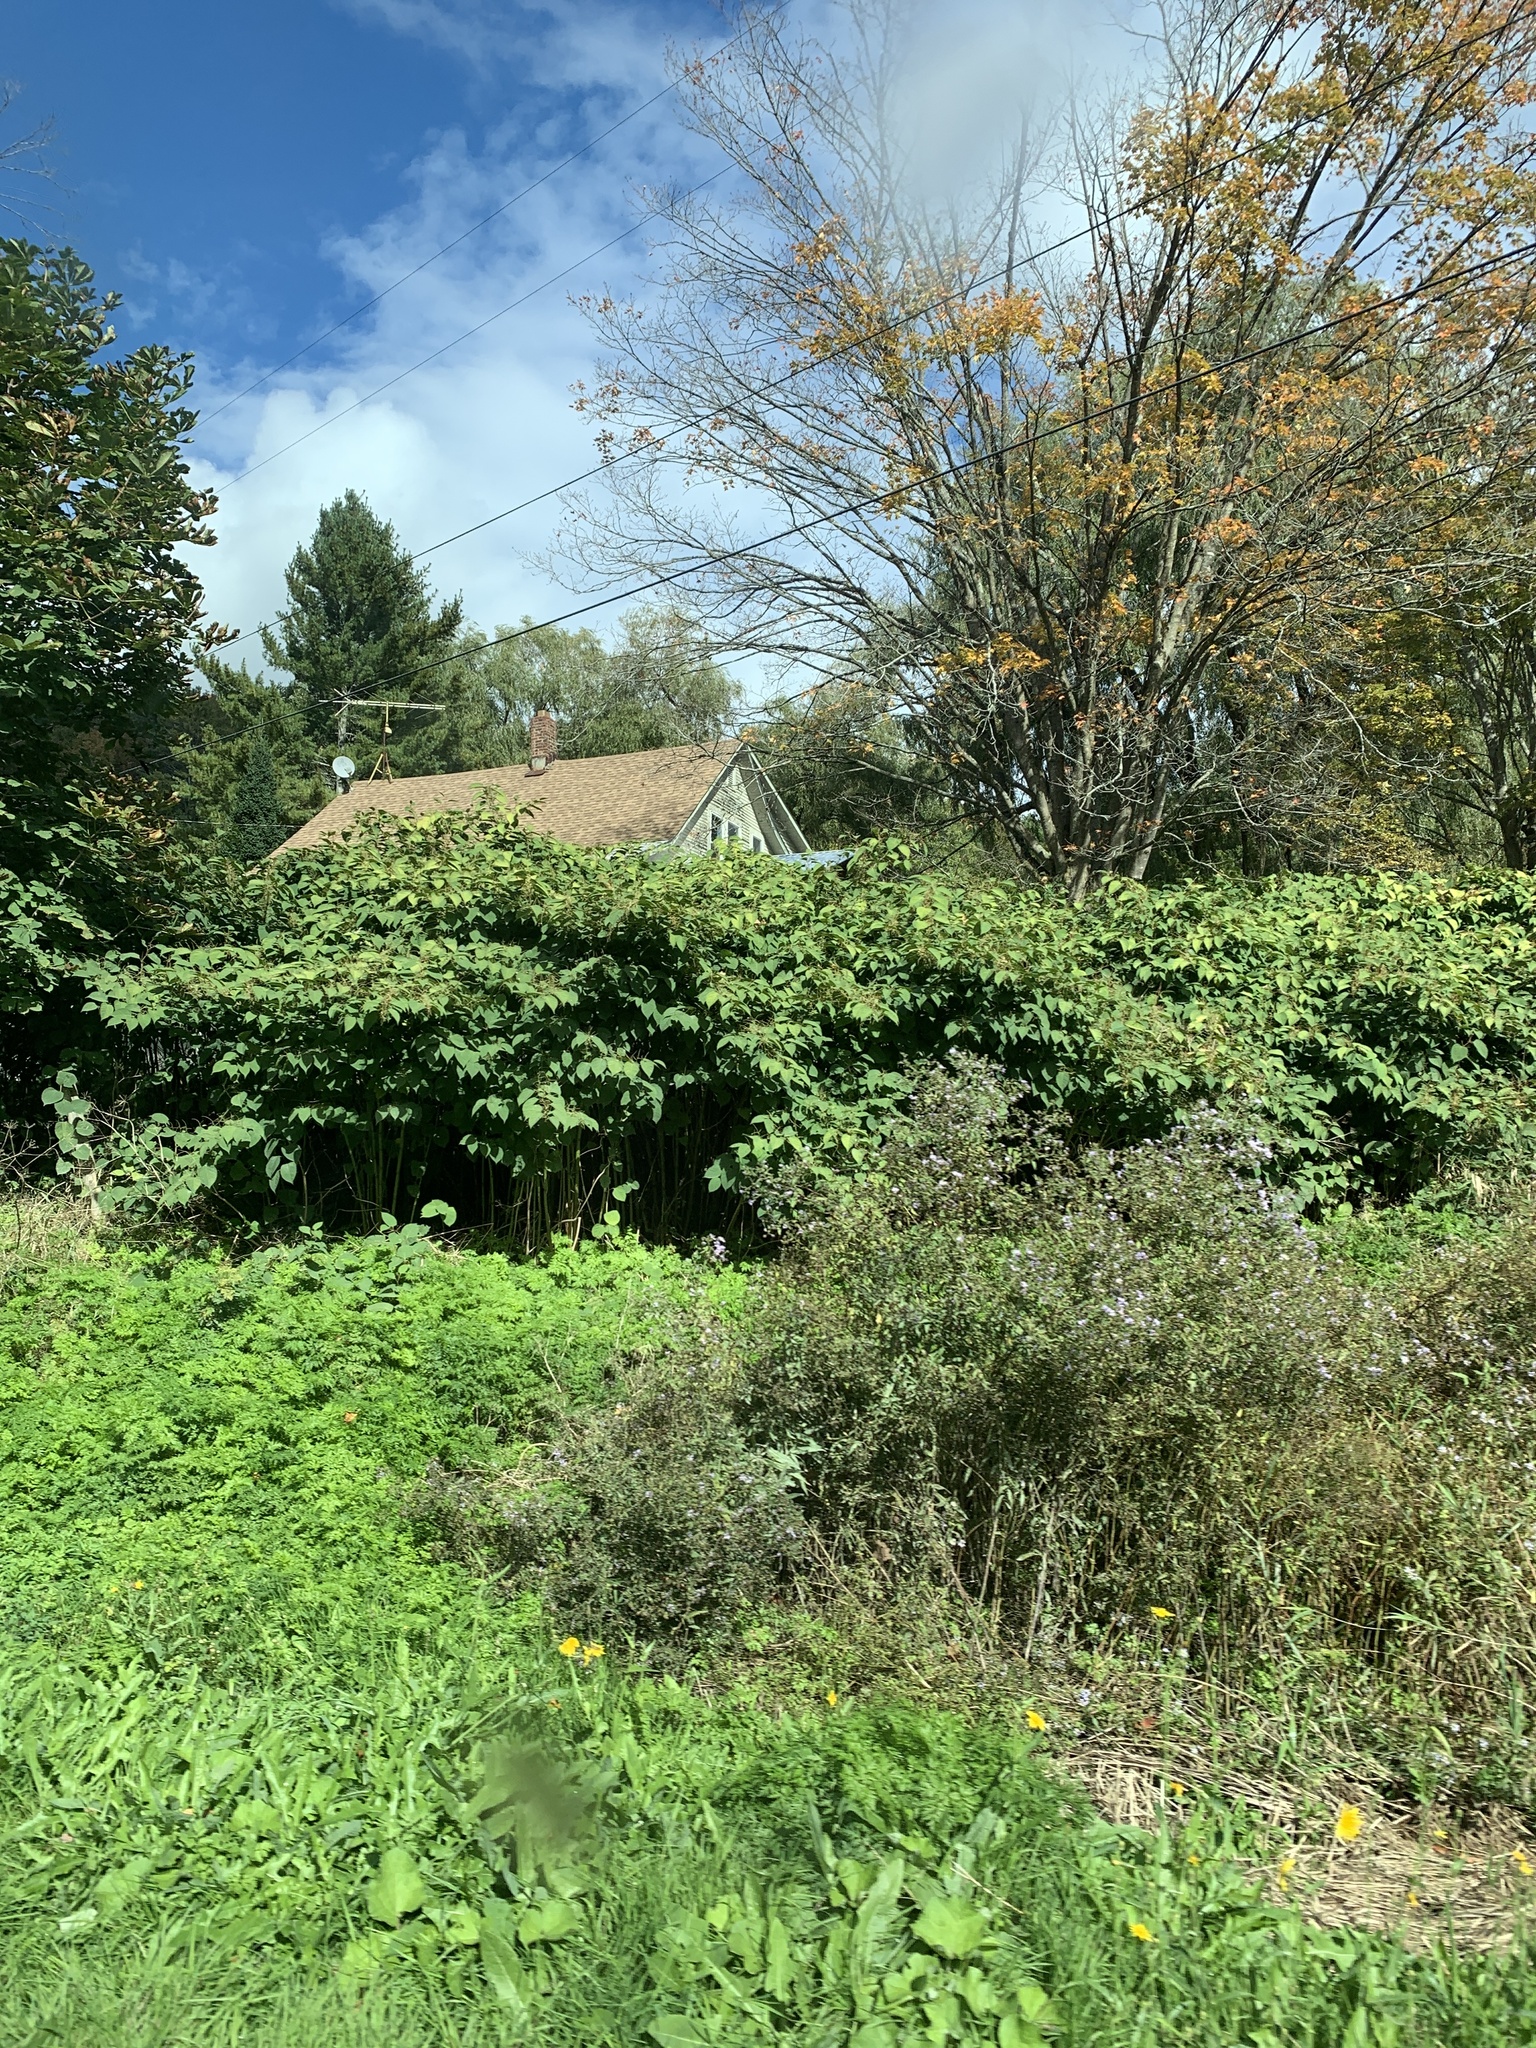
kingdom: Plantae
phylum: Tracheophyta
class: Magnoliopsida
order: Caryophyllales
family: Polygonaceae
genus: Reynoutria
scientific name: Reynoutria japonica
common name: Japanese knotweed
